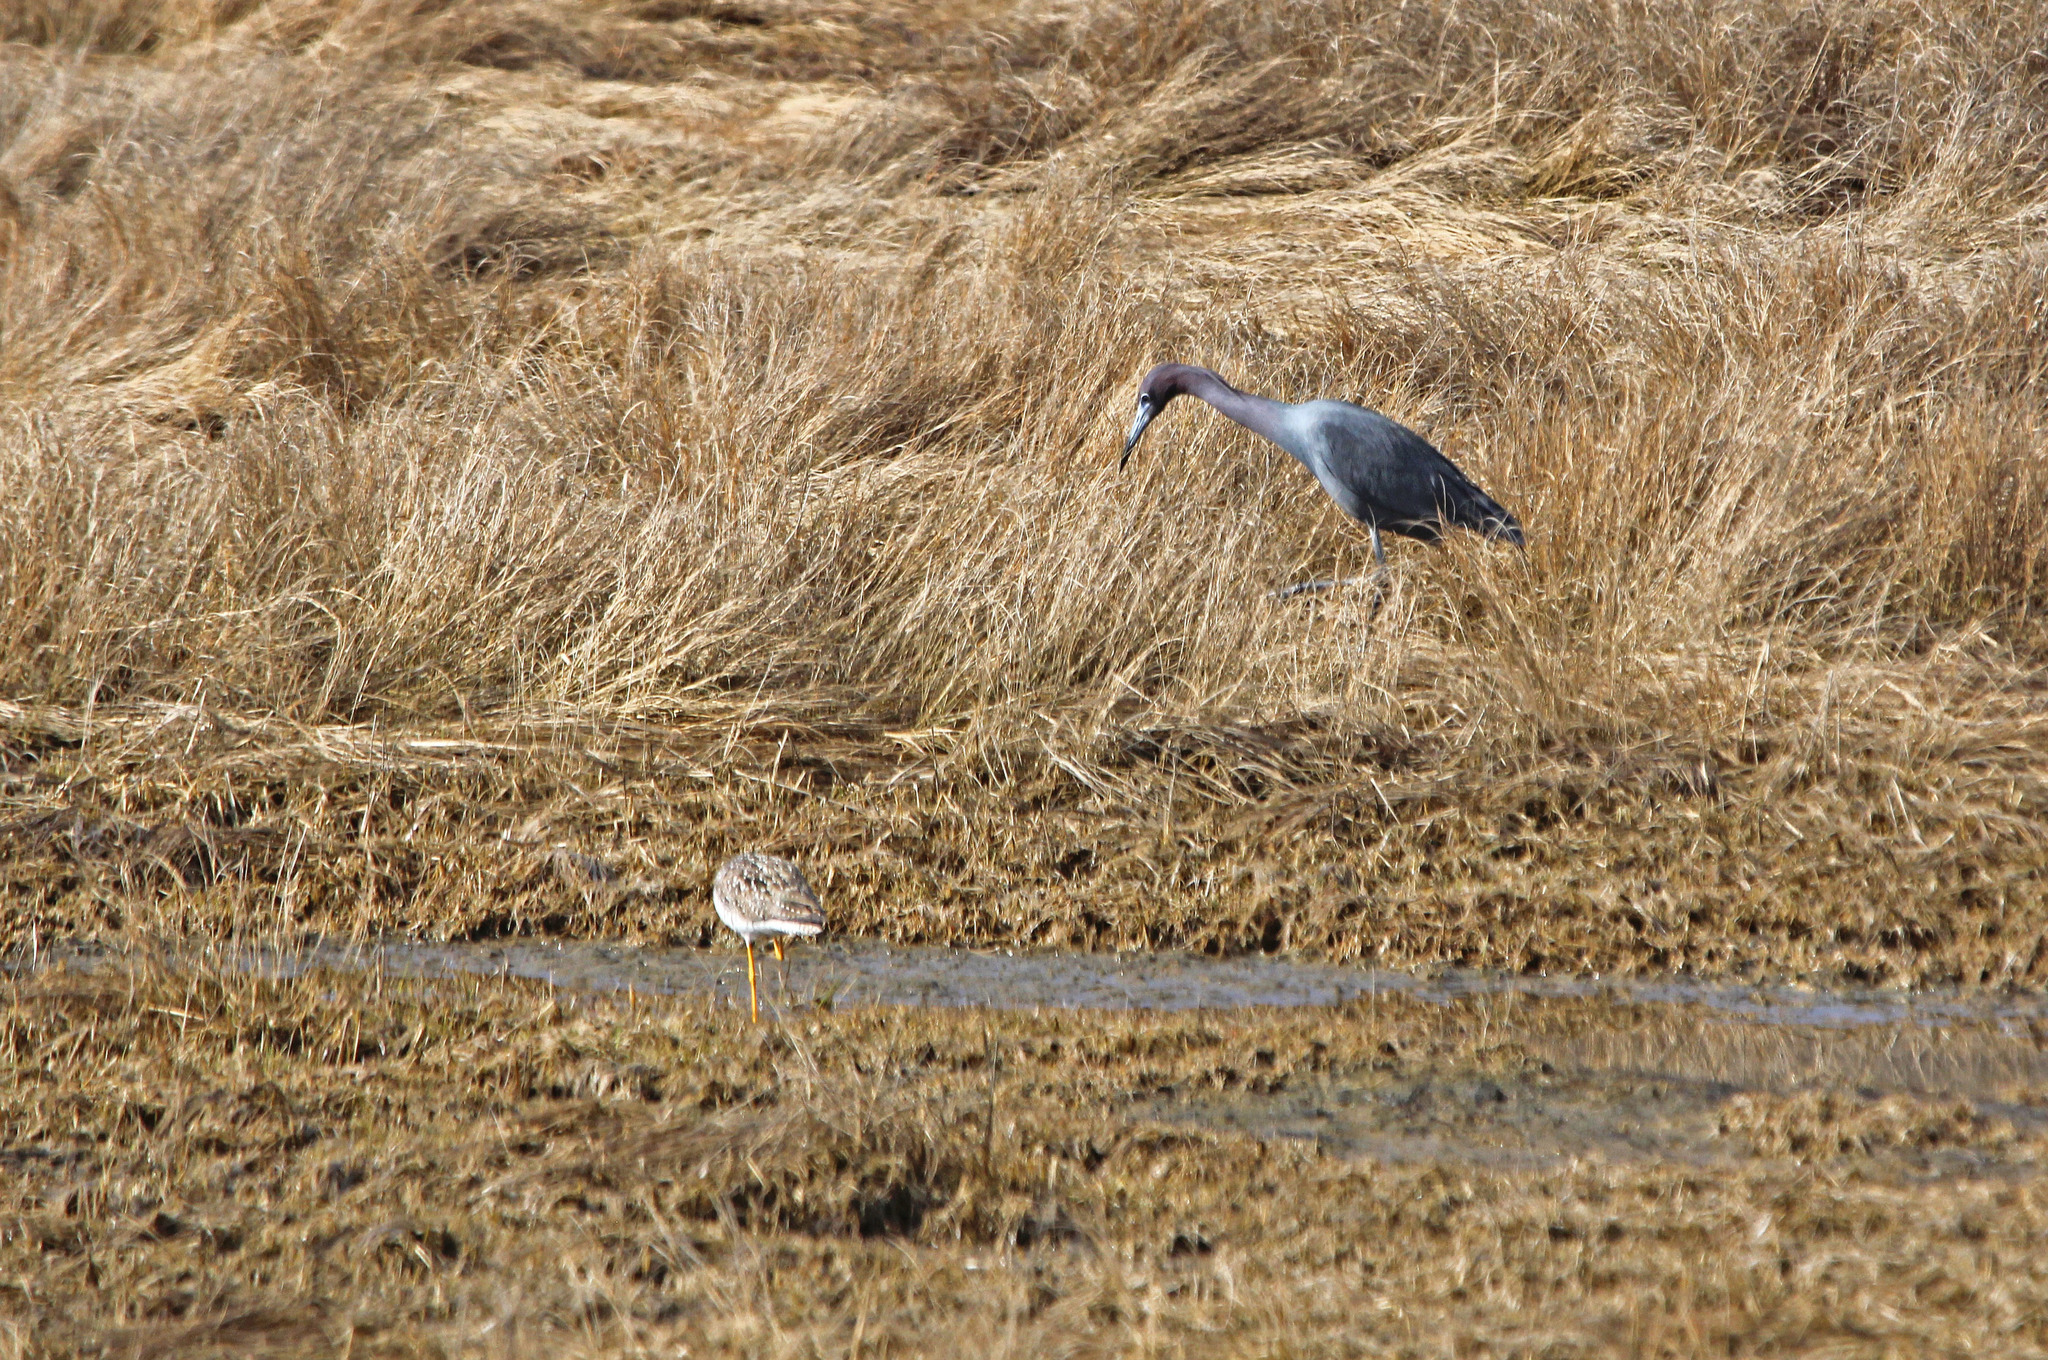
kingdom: Animalia
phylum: Chordata
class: Aves
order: Pelecaniformes
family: Ardeidae
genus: Egretta
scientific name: Egretta caerulea
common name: Little blue heron
